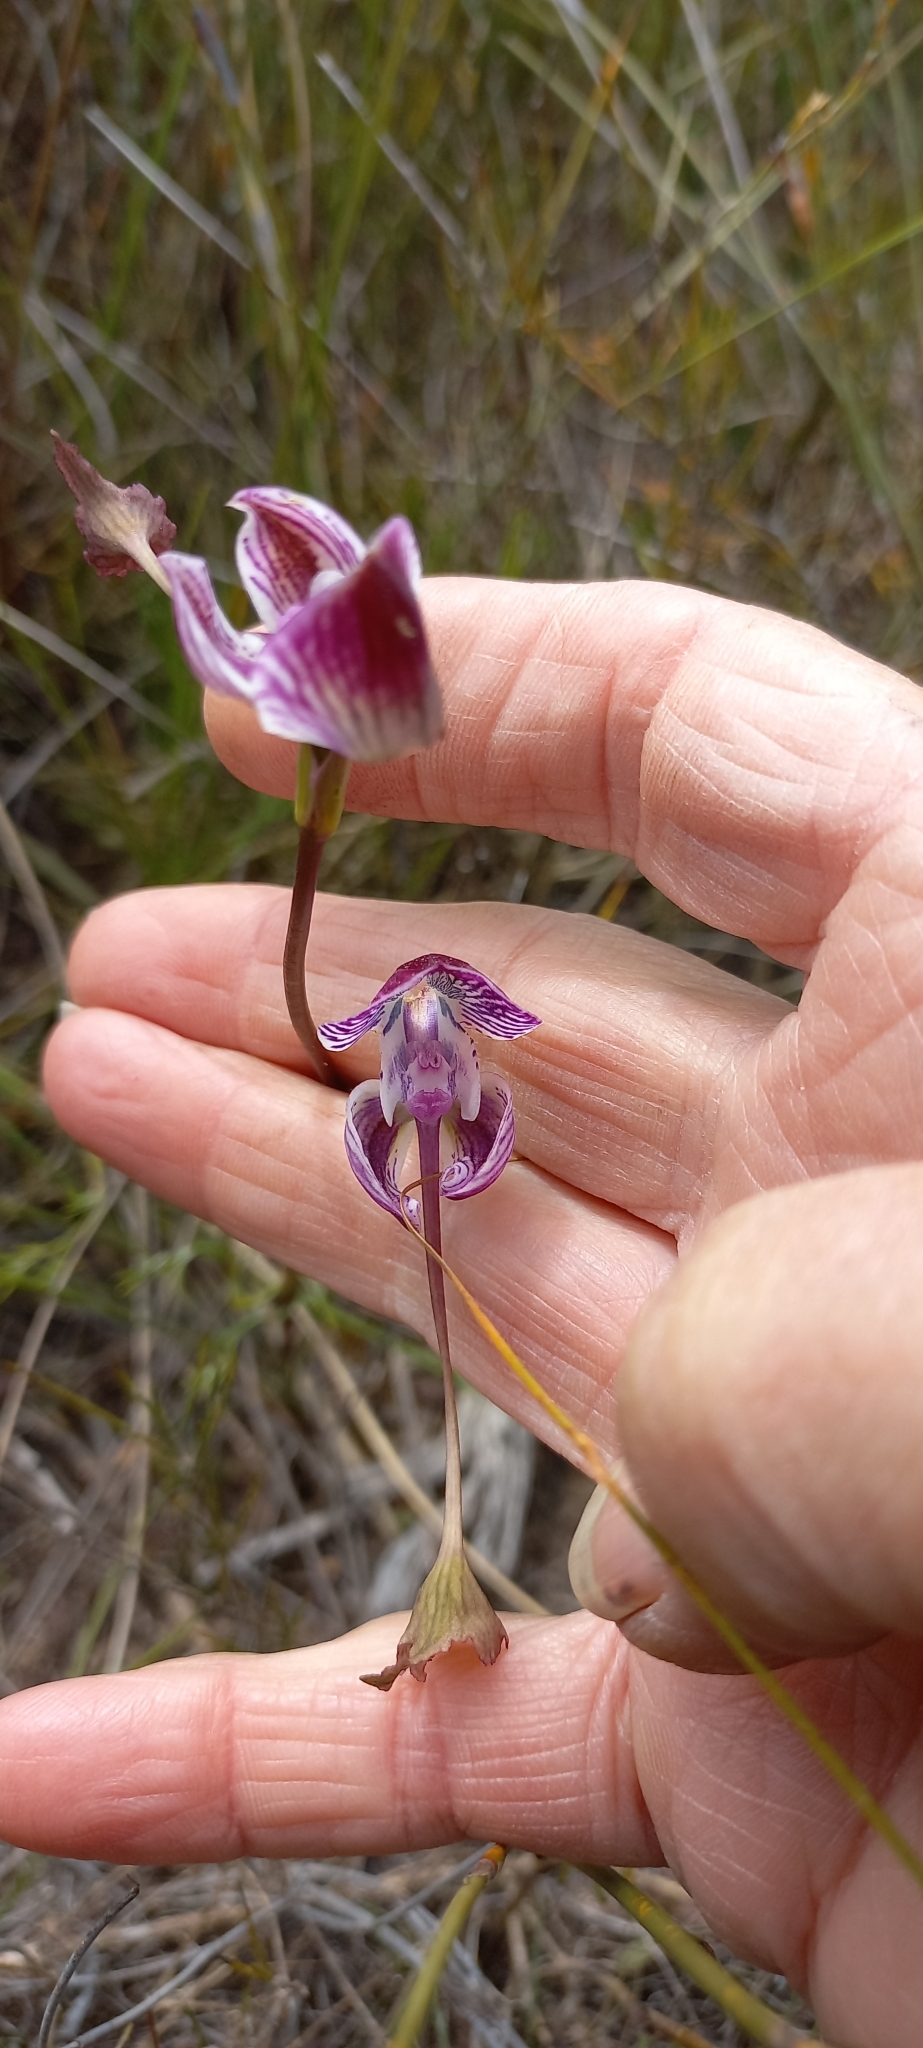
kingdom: Plantae
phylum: Tracheophyta
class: Liliopsida
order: Asparagales
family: Orchidaceae
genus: Disa
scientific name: Disa spathulata
